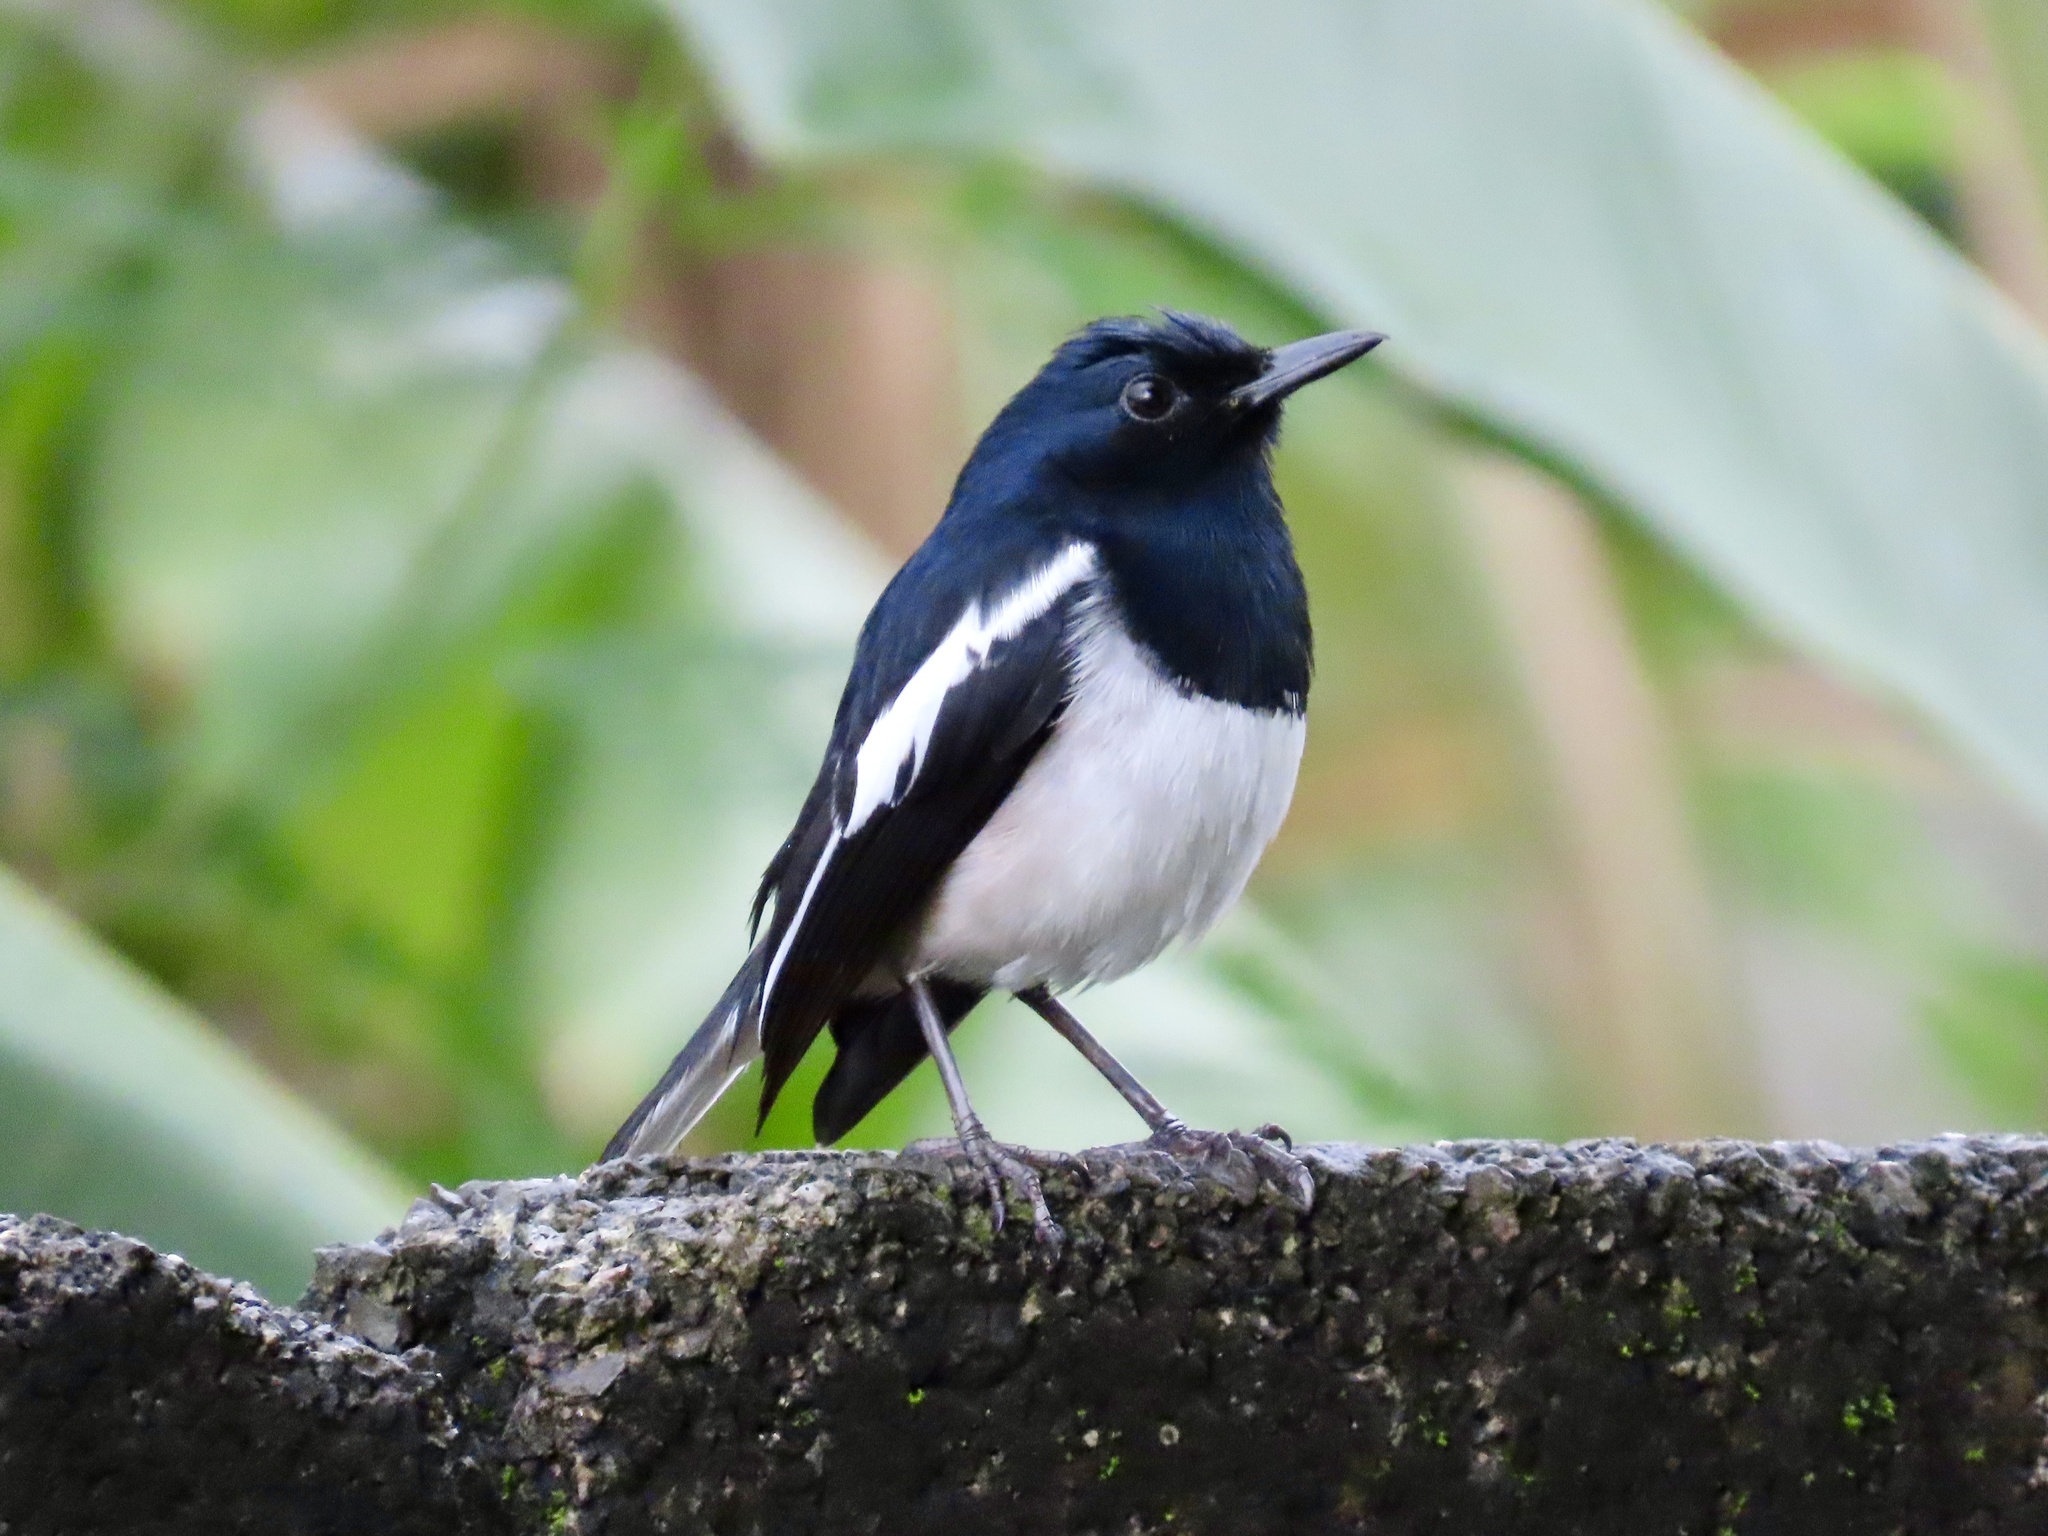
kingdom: Animalia
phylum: Chordata
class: Aves
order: Passeriformes
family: Muscicapidae
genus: Copsychus
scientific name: Copsychus saularis
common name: Oriental magpie-robin
